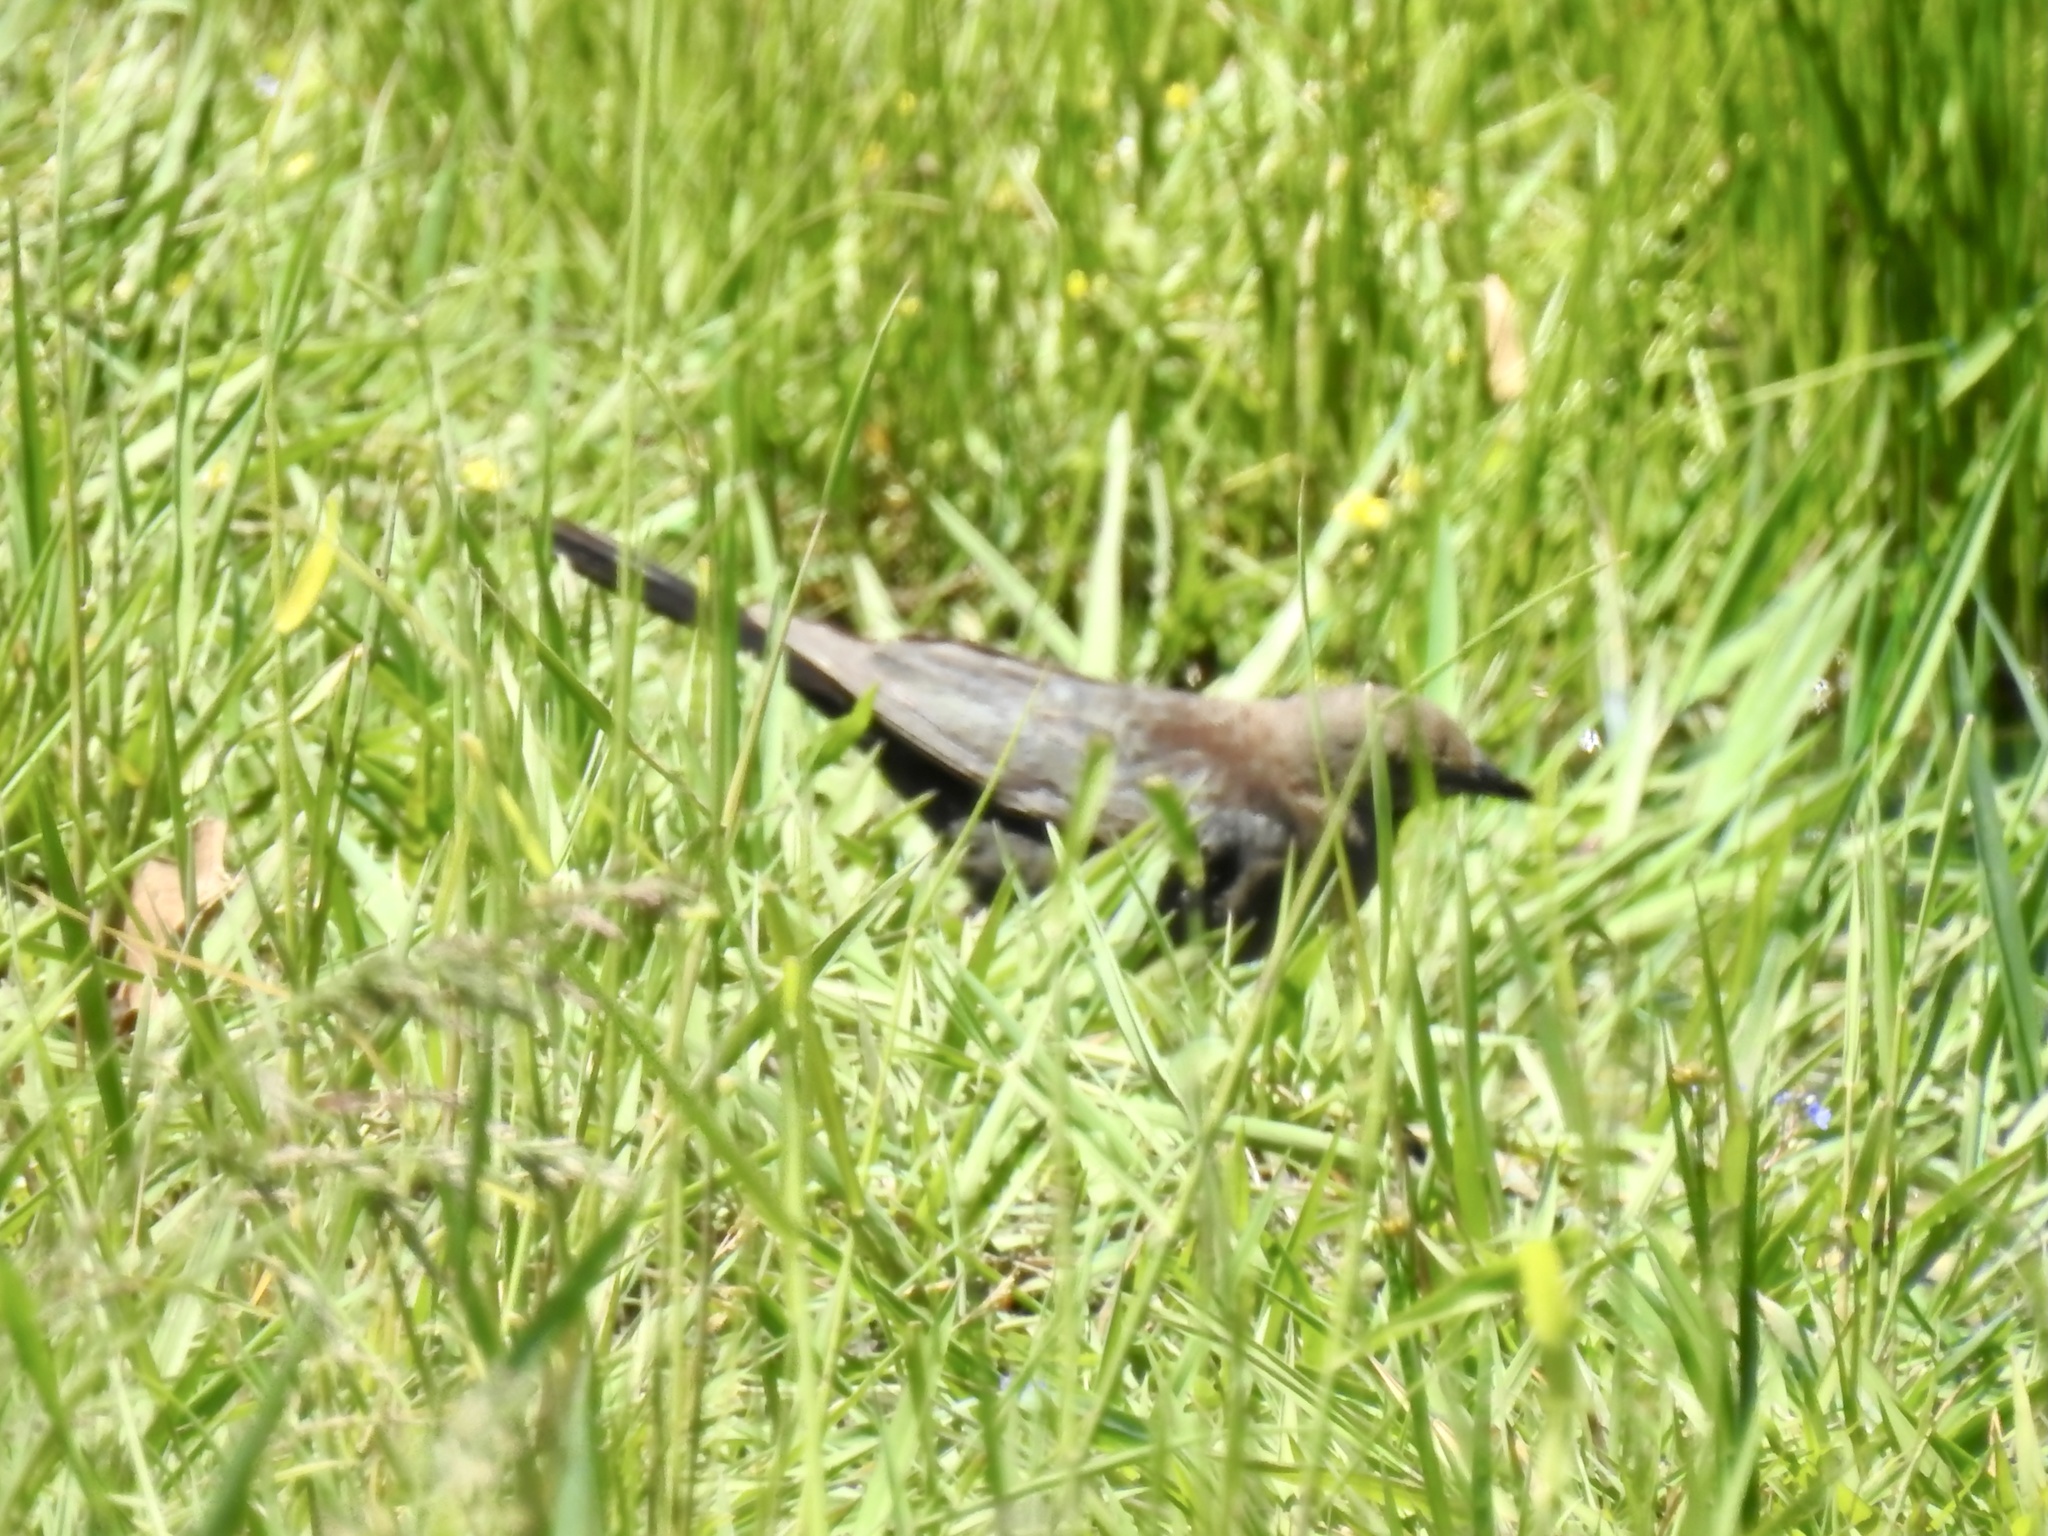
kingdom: Animalia
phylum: Chordata
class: Aves
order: Passeriformes
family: Icteridae
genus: Euphagus
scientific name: Euphagus cyanocephalus
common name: Brewer's blackbird
